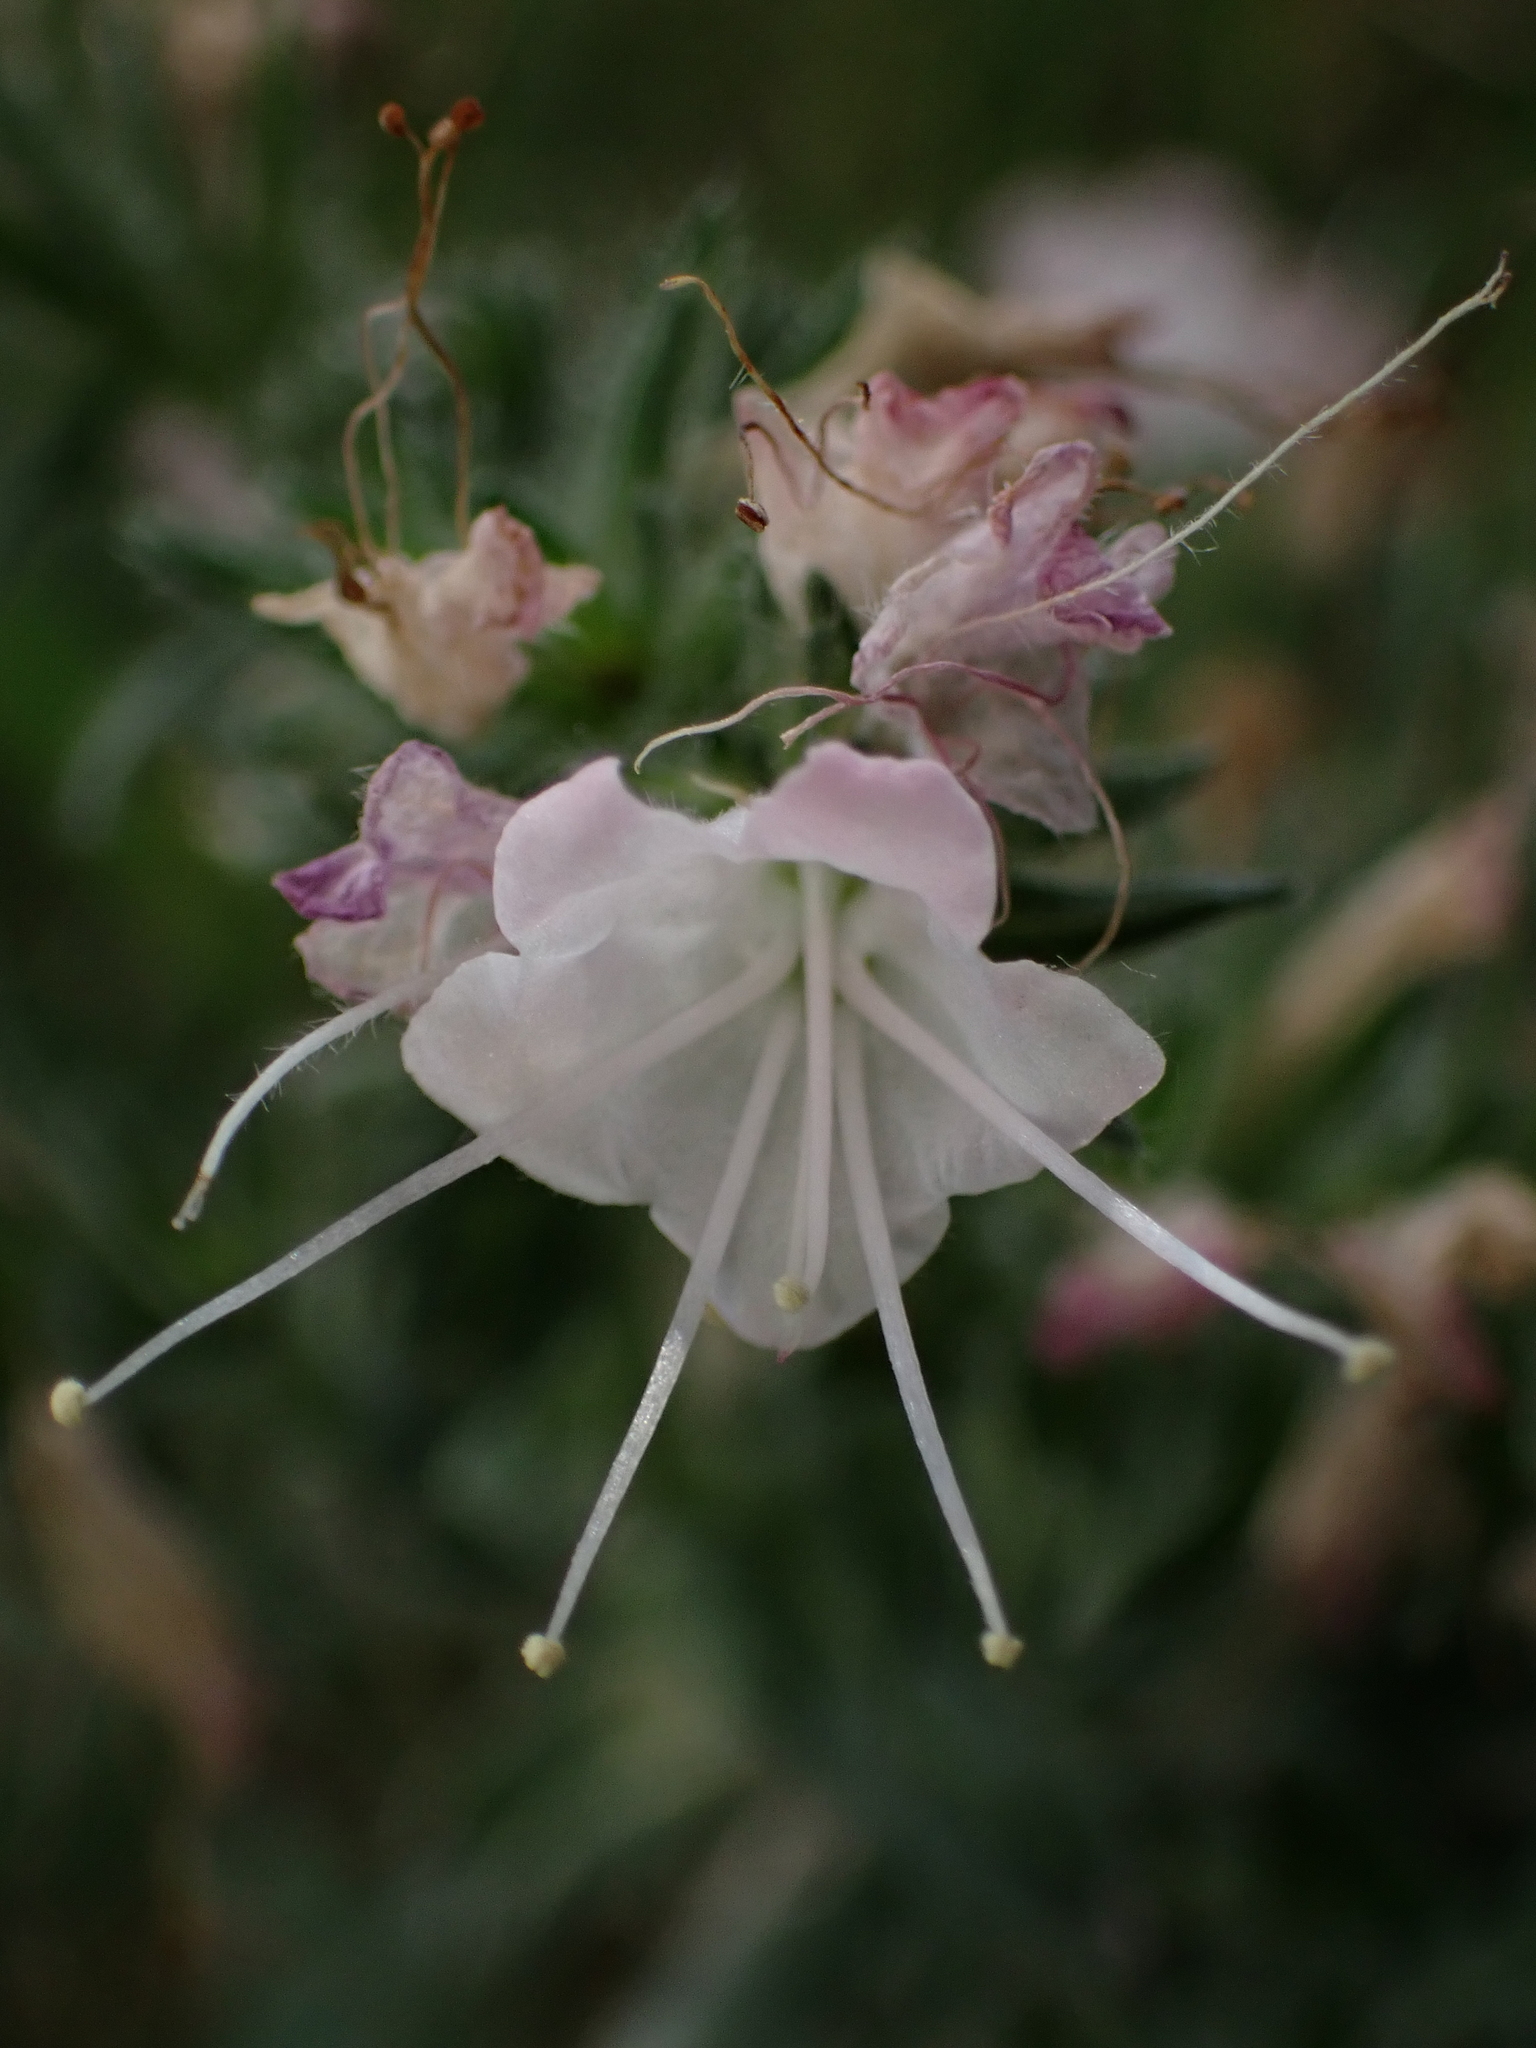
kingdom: Plantae
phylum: Tracheophyta
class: Magnoliopsida
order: Boraginales
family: Boraginaceae
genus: Echium
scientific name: Echium vulgare
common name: Common viper's bugloss
